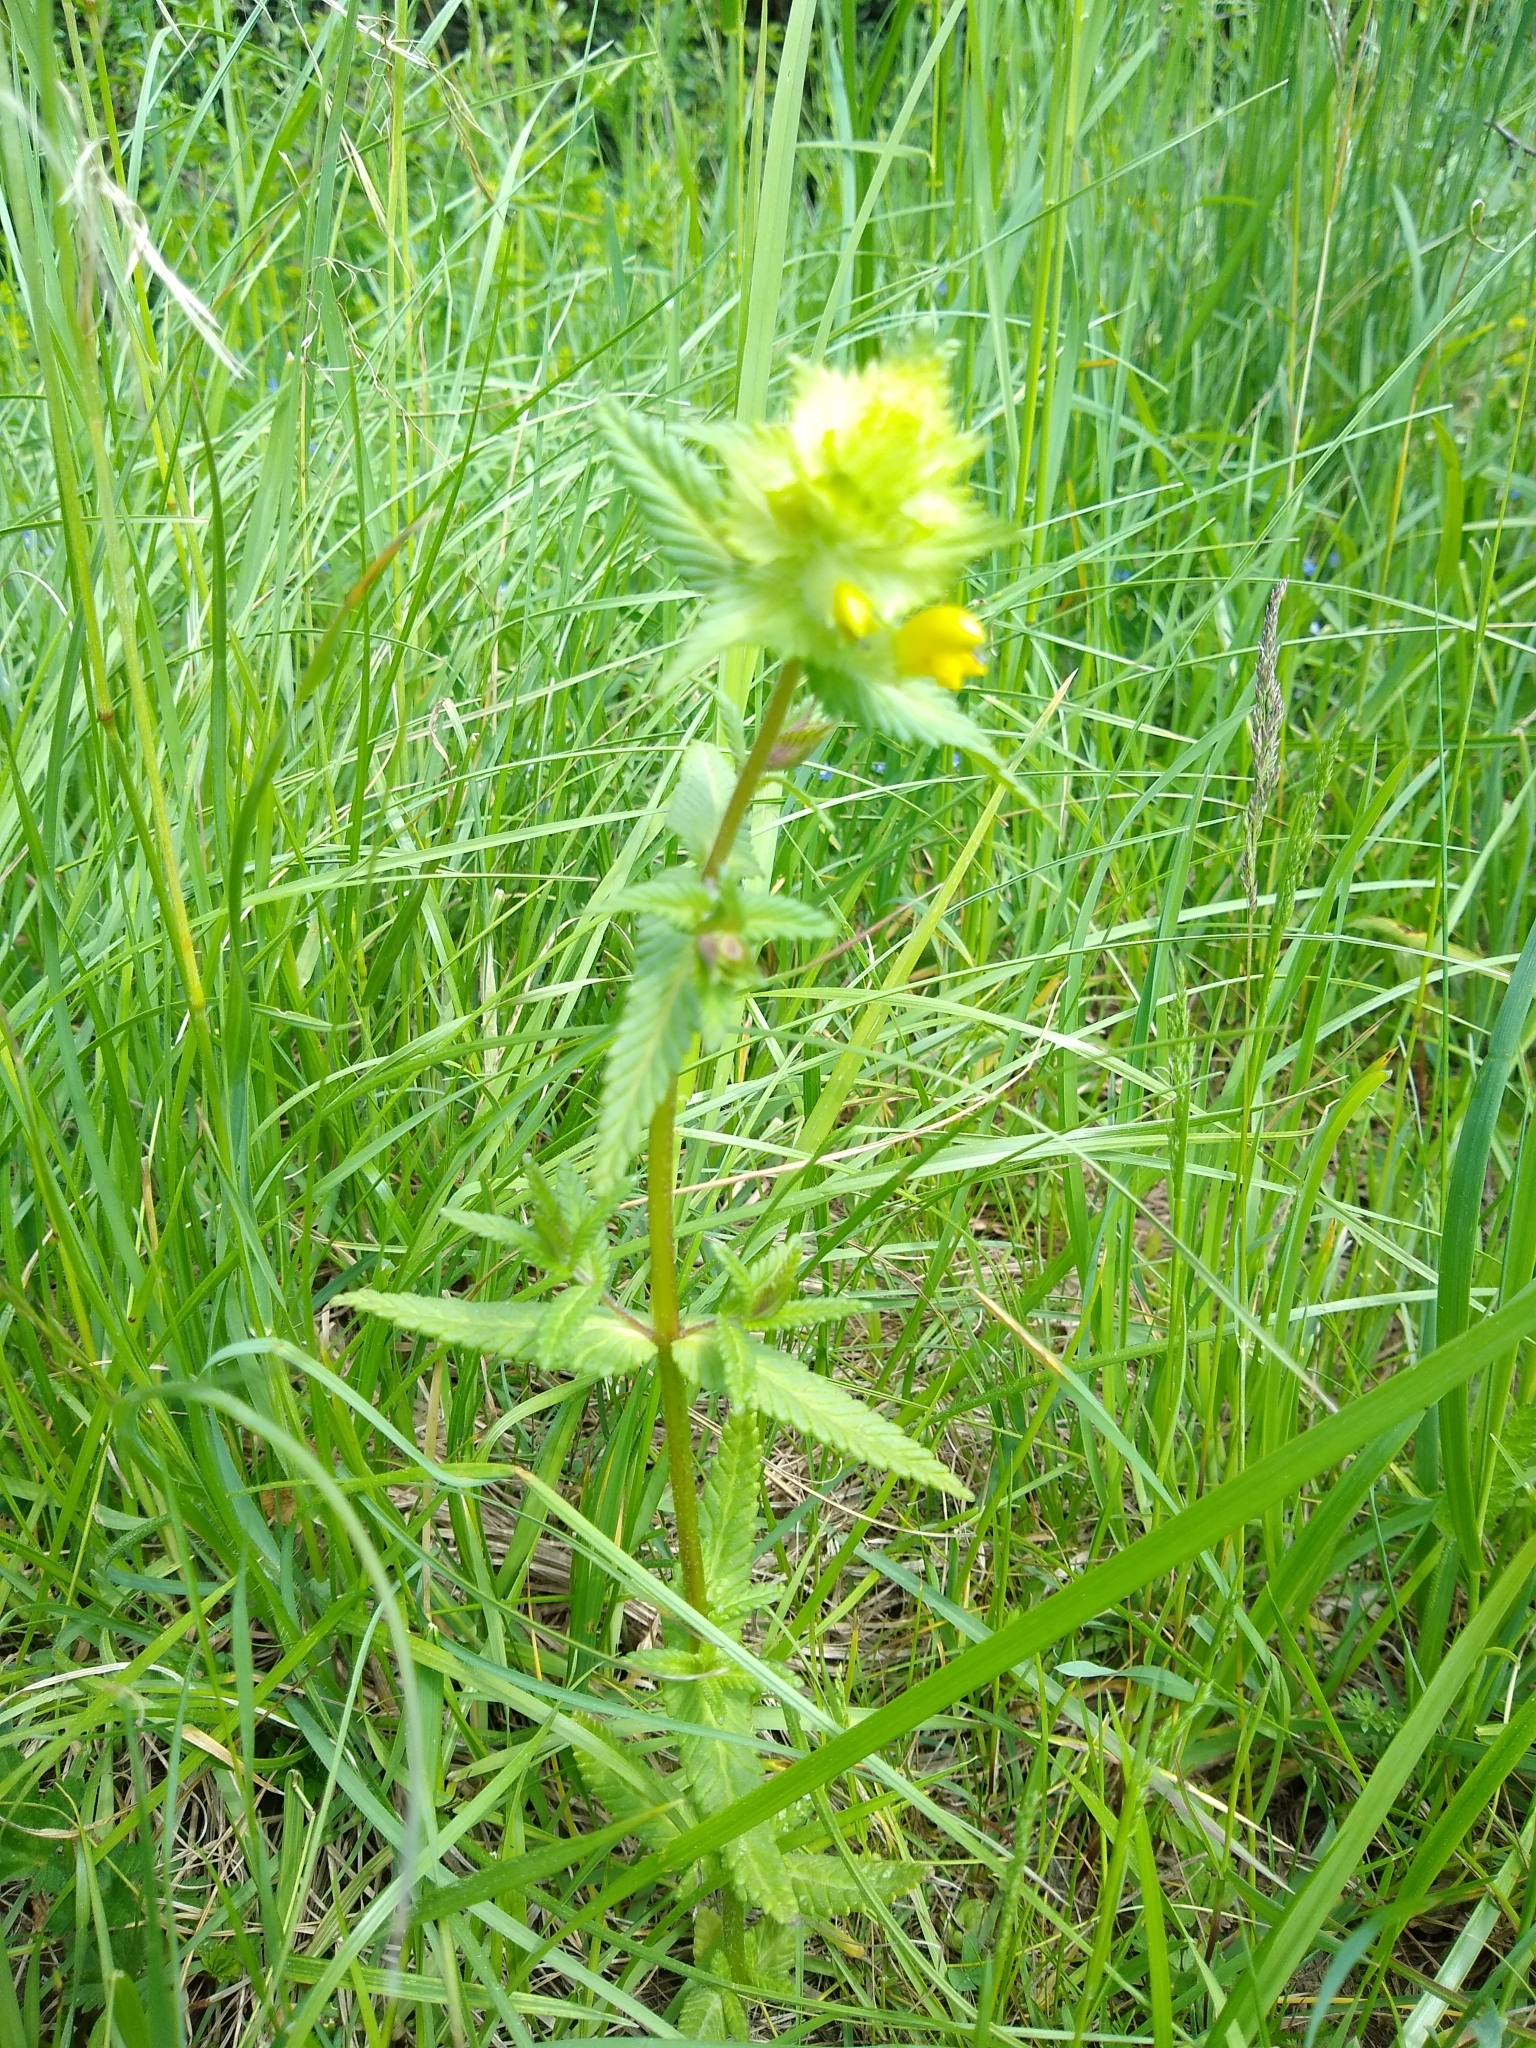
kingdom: Plantae
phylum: Tracheophyta
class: Magnoliopsida
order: Lamiales
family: Orobanchaceae
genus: Rhinanthus
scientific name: Rhinanthus alectorolophus
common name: Greater yellow-rattle
